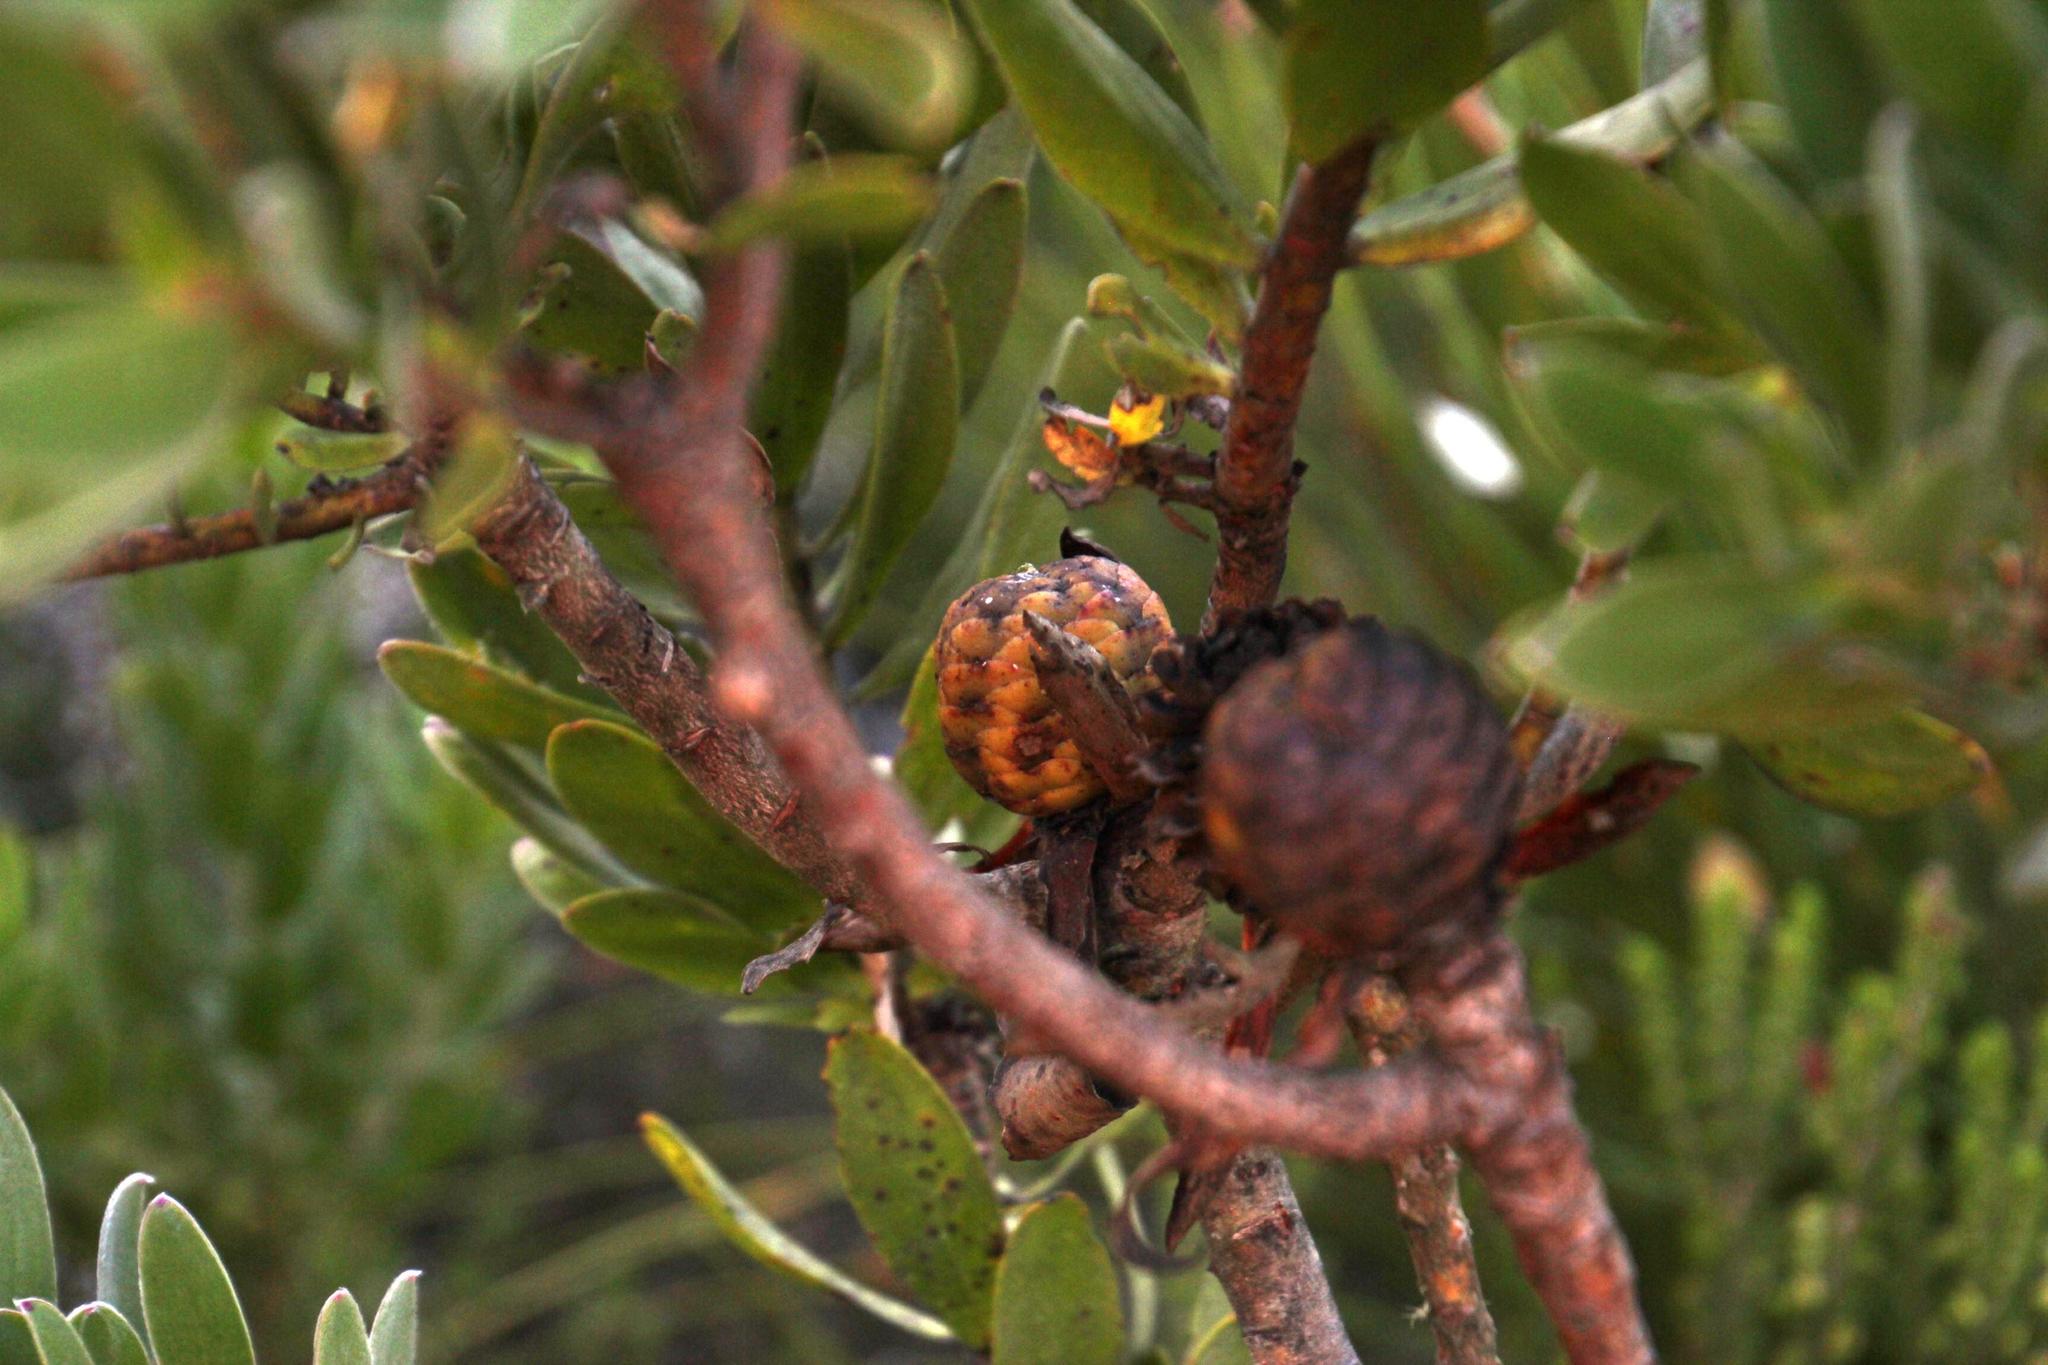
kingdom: Plantae
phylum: Tracheophyta
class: Magnoliopsida
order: Proteales
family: Proteaceae
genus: Leucadendron
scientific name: Leucadendron laureolum
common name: Golden sunshinebush
